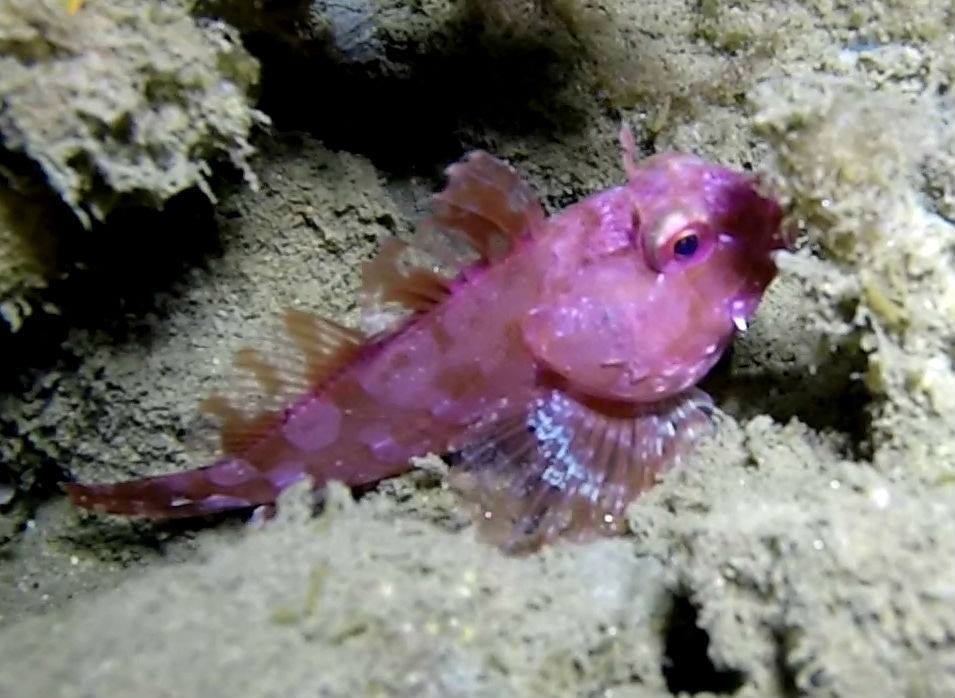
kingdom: Animalia
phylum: Chordata
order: Scorpaeniformes
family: Cottidae
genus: Scorpaenichthys
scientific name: Scorpaenichthys marmoratus
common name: Cabezon
